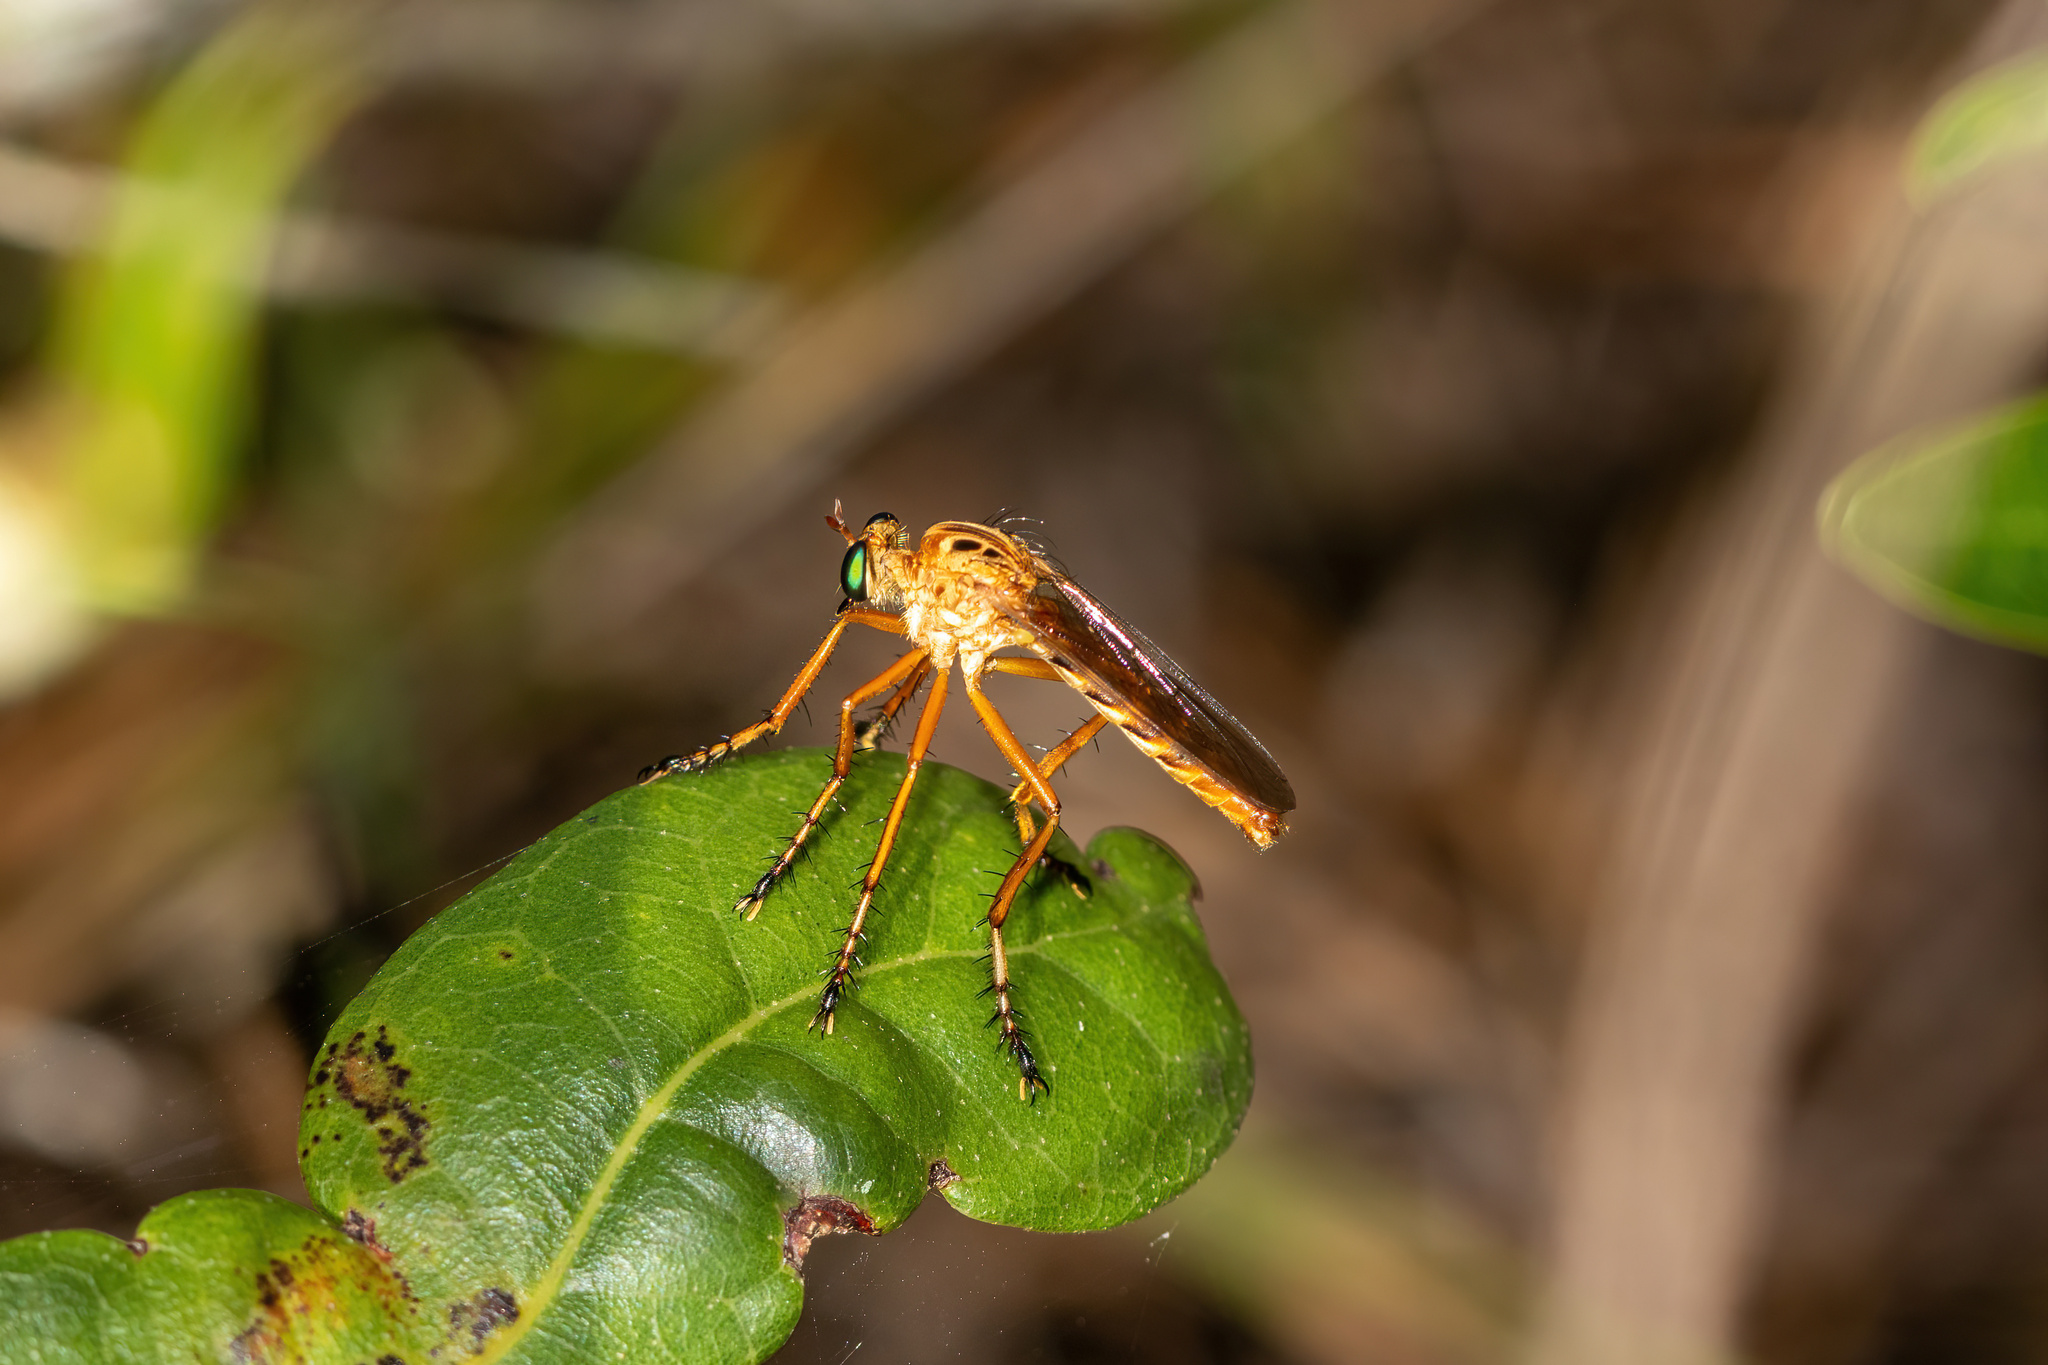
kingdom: Animalia
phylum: Arthropoda
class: Insecta
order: Diptera
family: Asilidae
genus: Diogmites
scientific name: Diogmites esuriens
